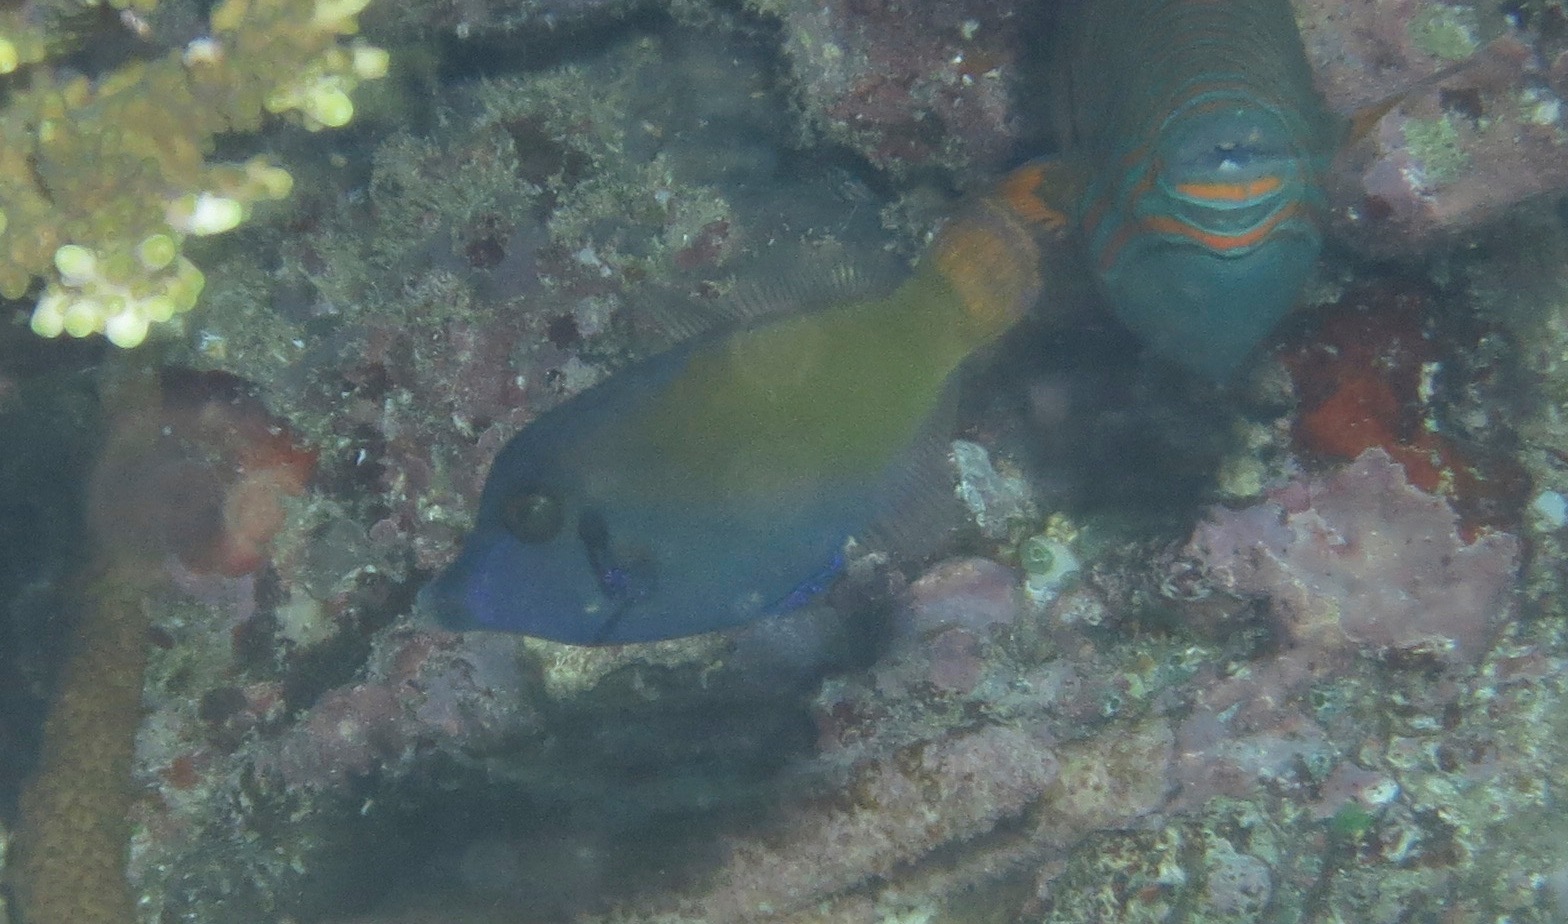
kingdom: Animalia
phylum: Chordata
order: Tetraodontiformes
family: Monacanthidae
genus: Pervagor
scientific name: Pervagor janthinosoma
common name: Blackbar filefish
